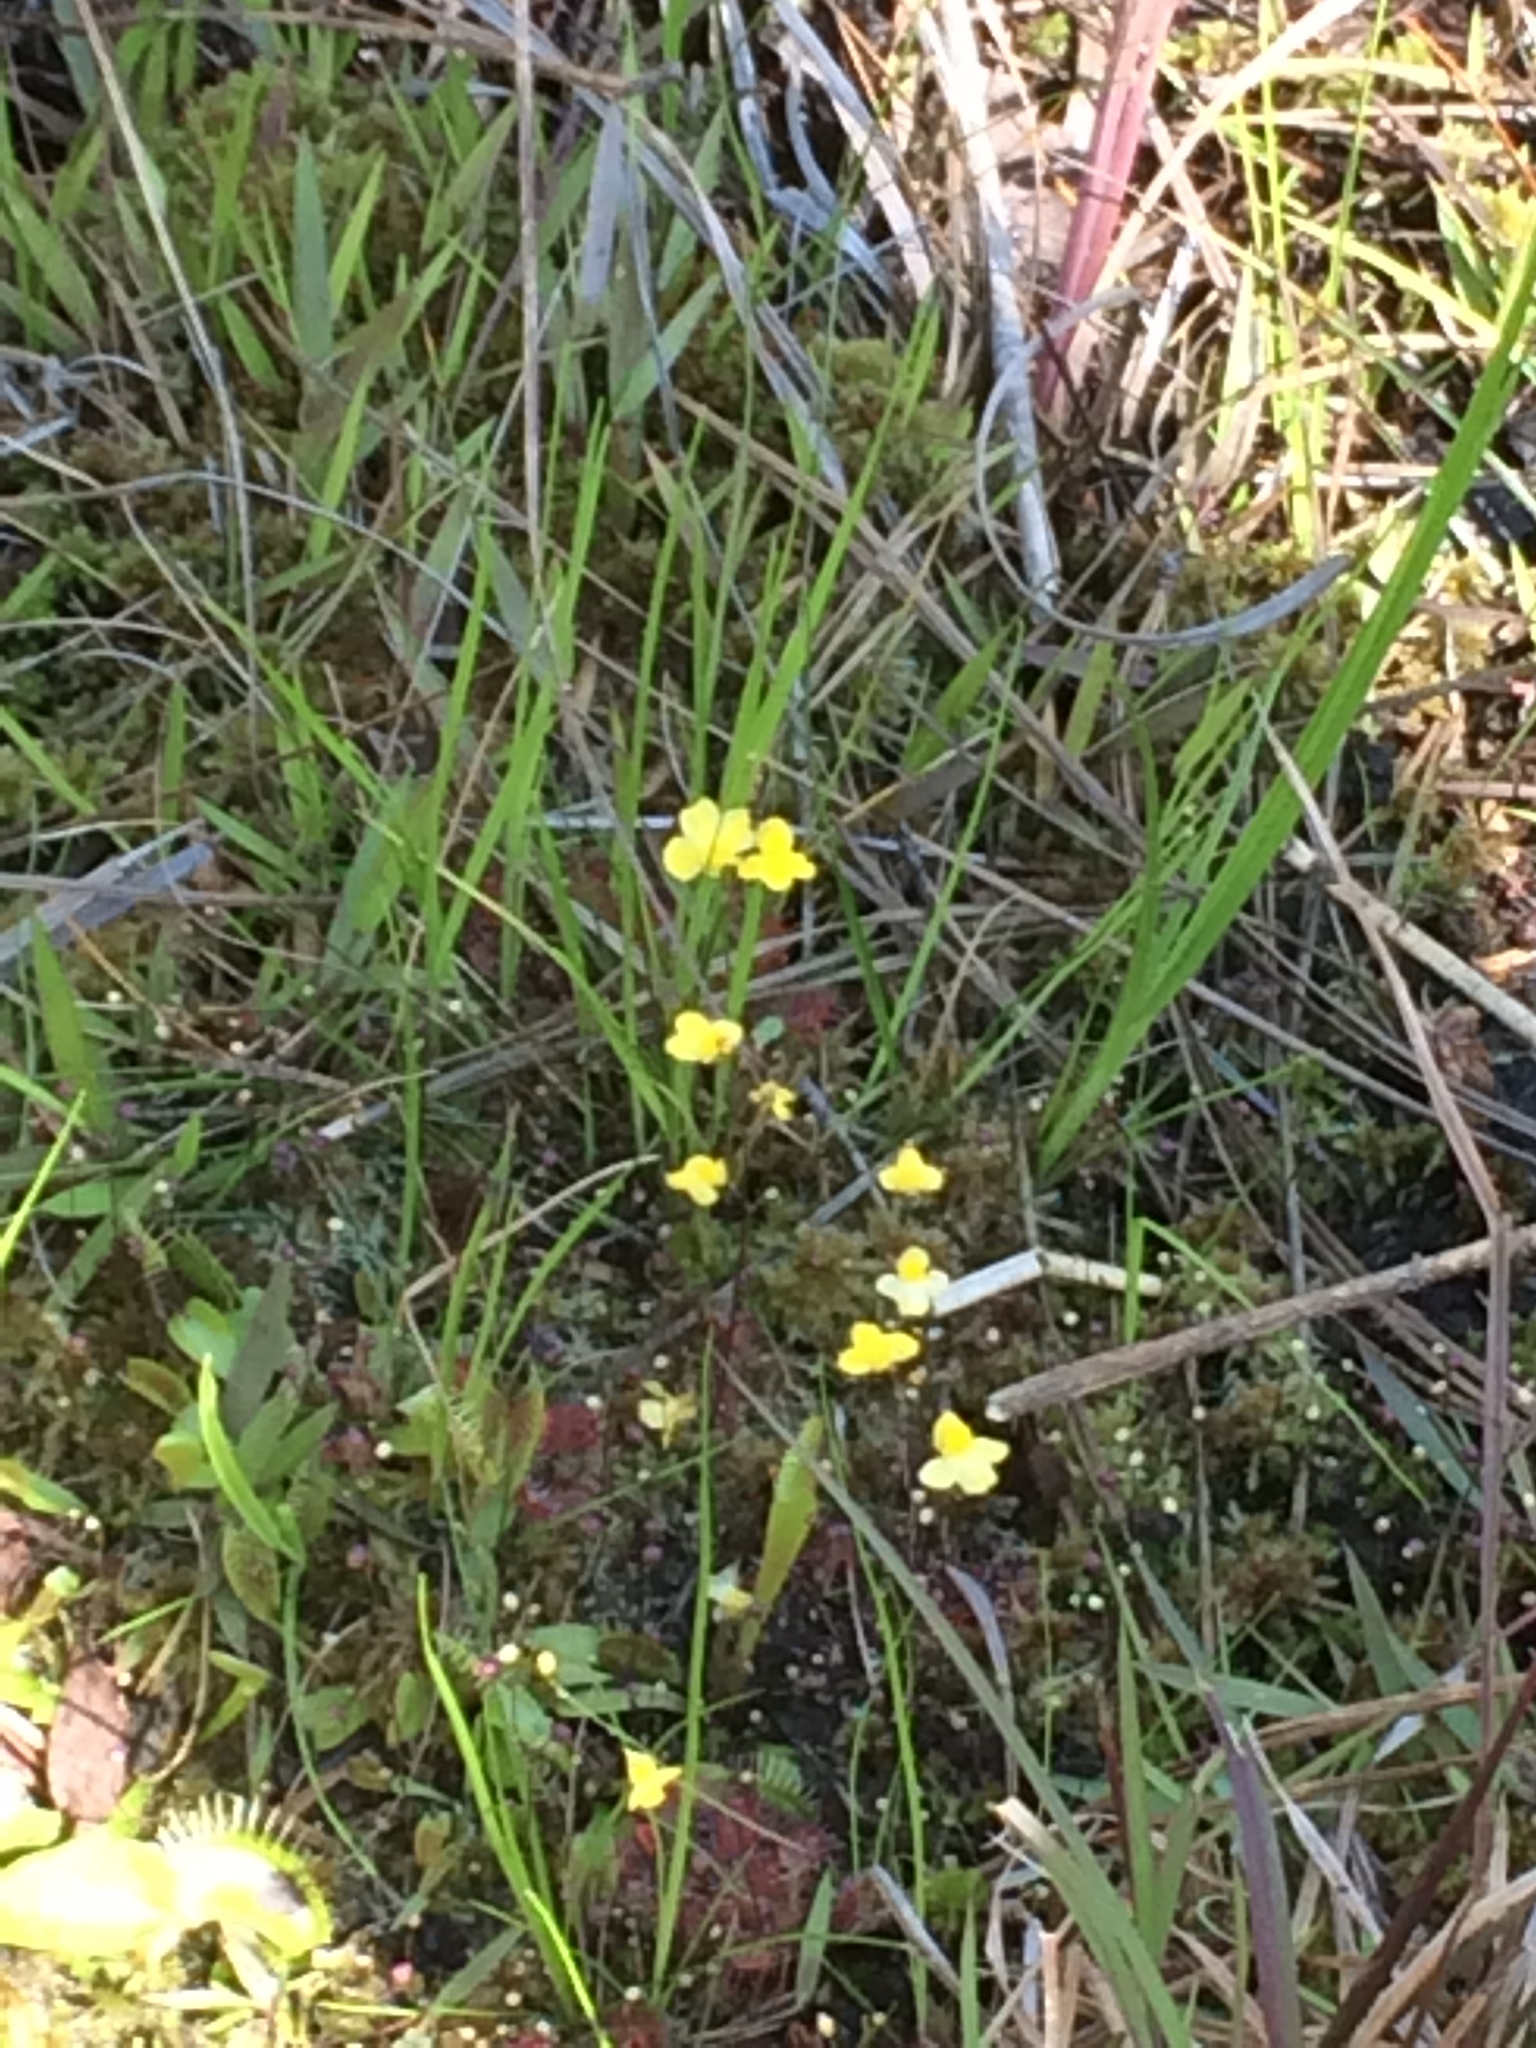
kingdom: Plantae
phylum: Tracheophyta
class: Magnoliopsida
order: Lamiales
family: Lentibulariaceae
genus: Utricularia
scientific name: Utricularia subulata
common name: Tiny bladderwort
